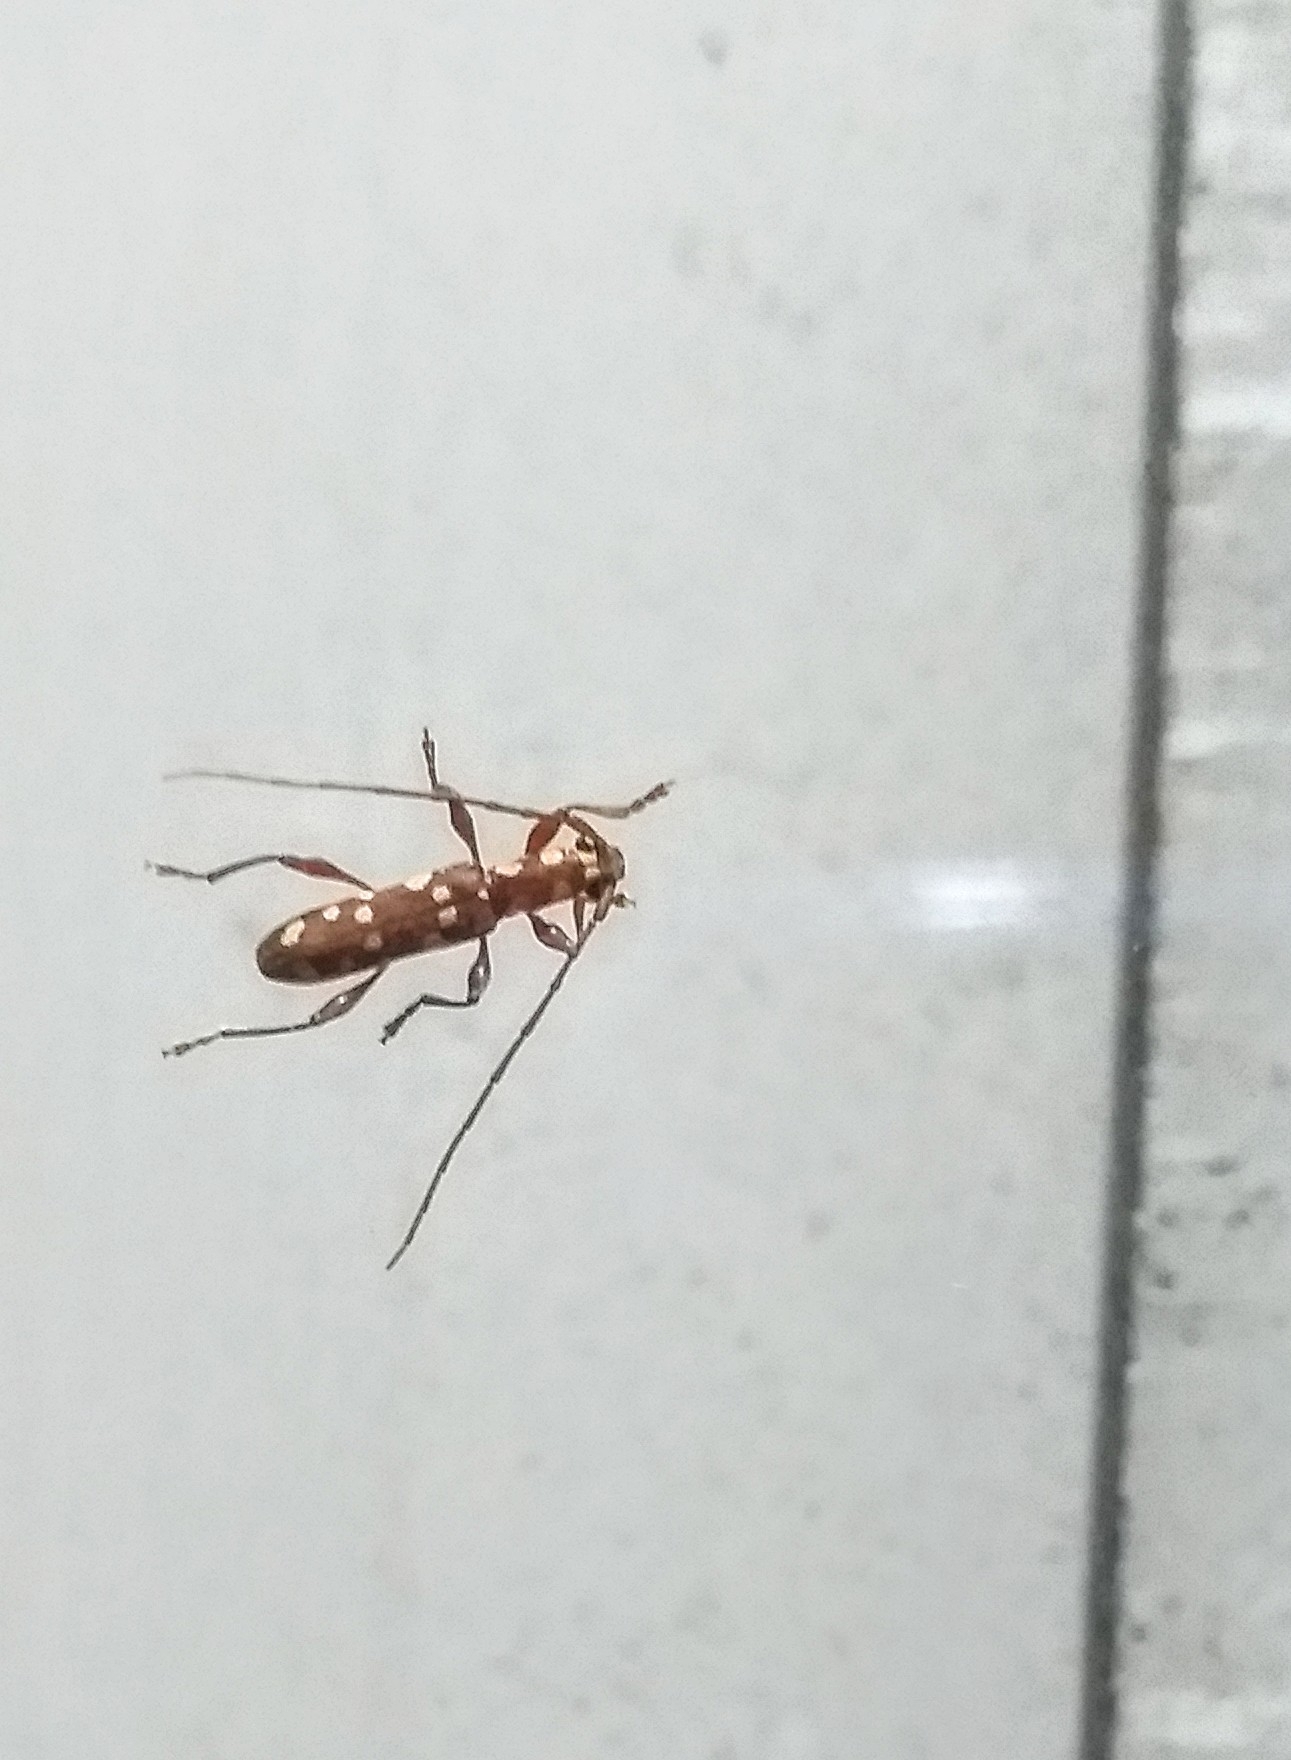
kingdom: Animalia
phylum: Arthropoda
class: Insecta
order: Coleoptera
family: Cerambycidae
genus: Ceresium
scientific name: Ceresium gracile
